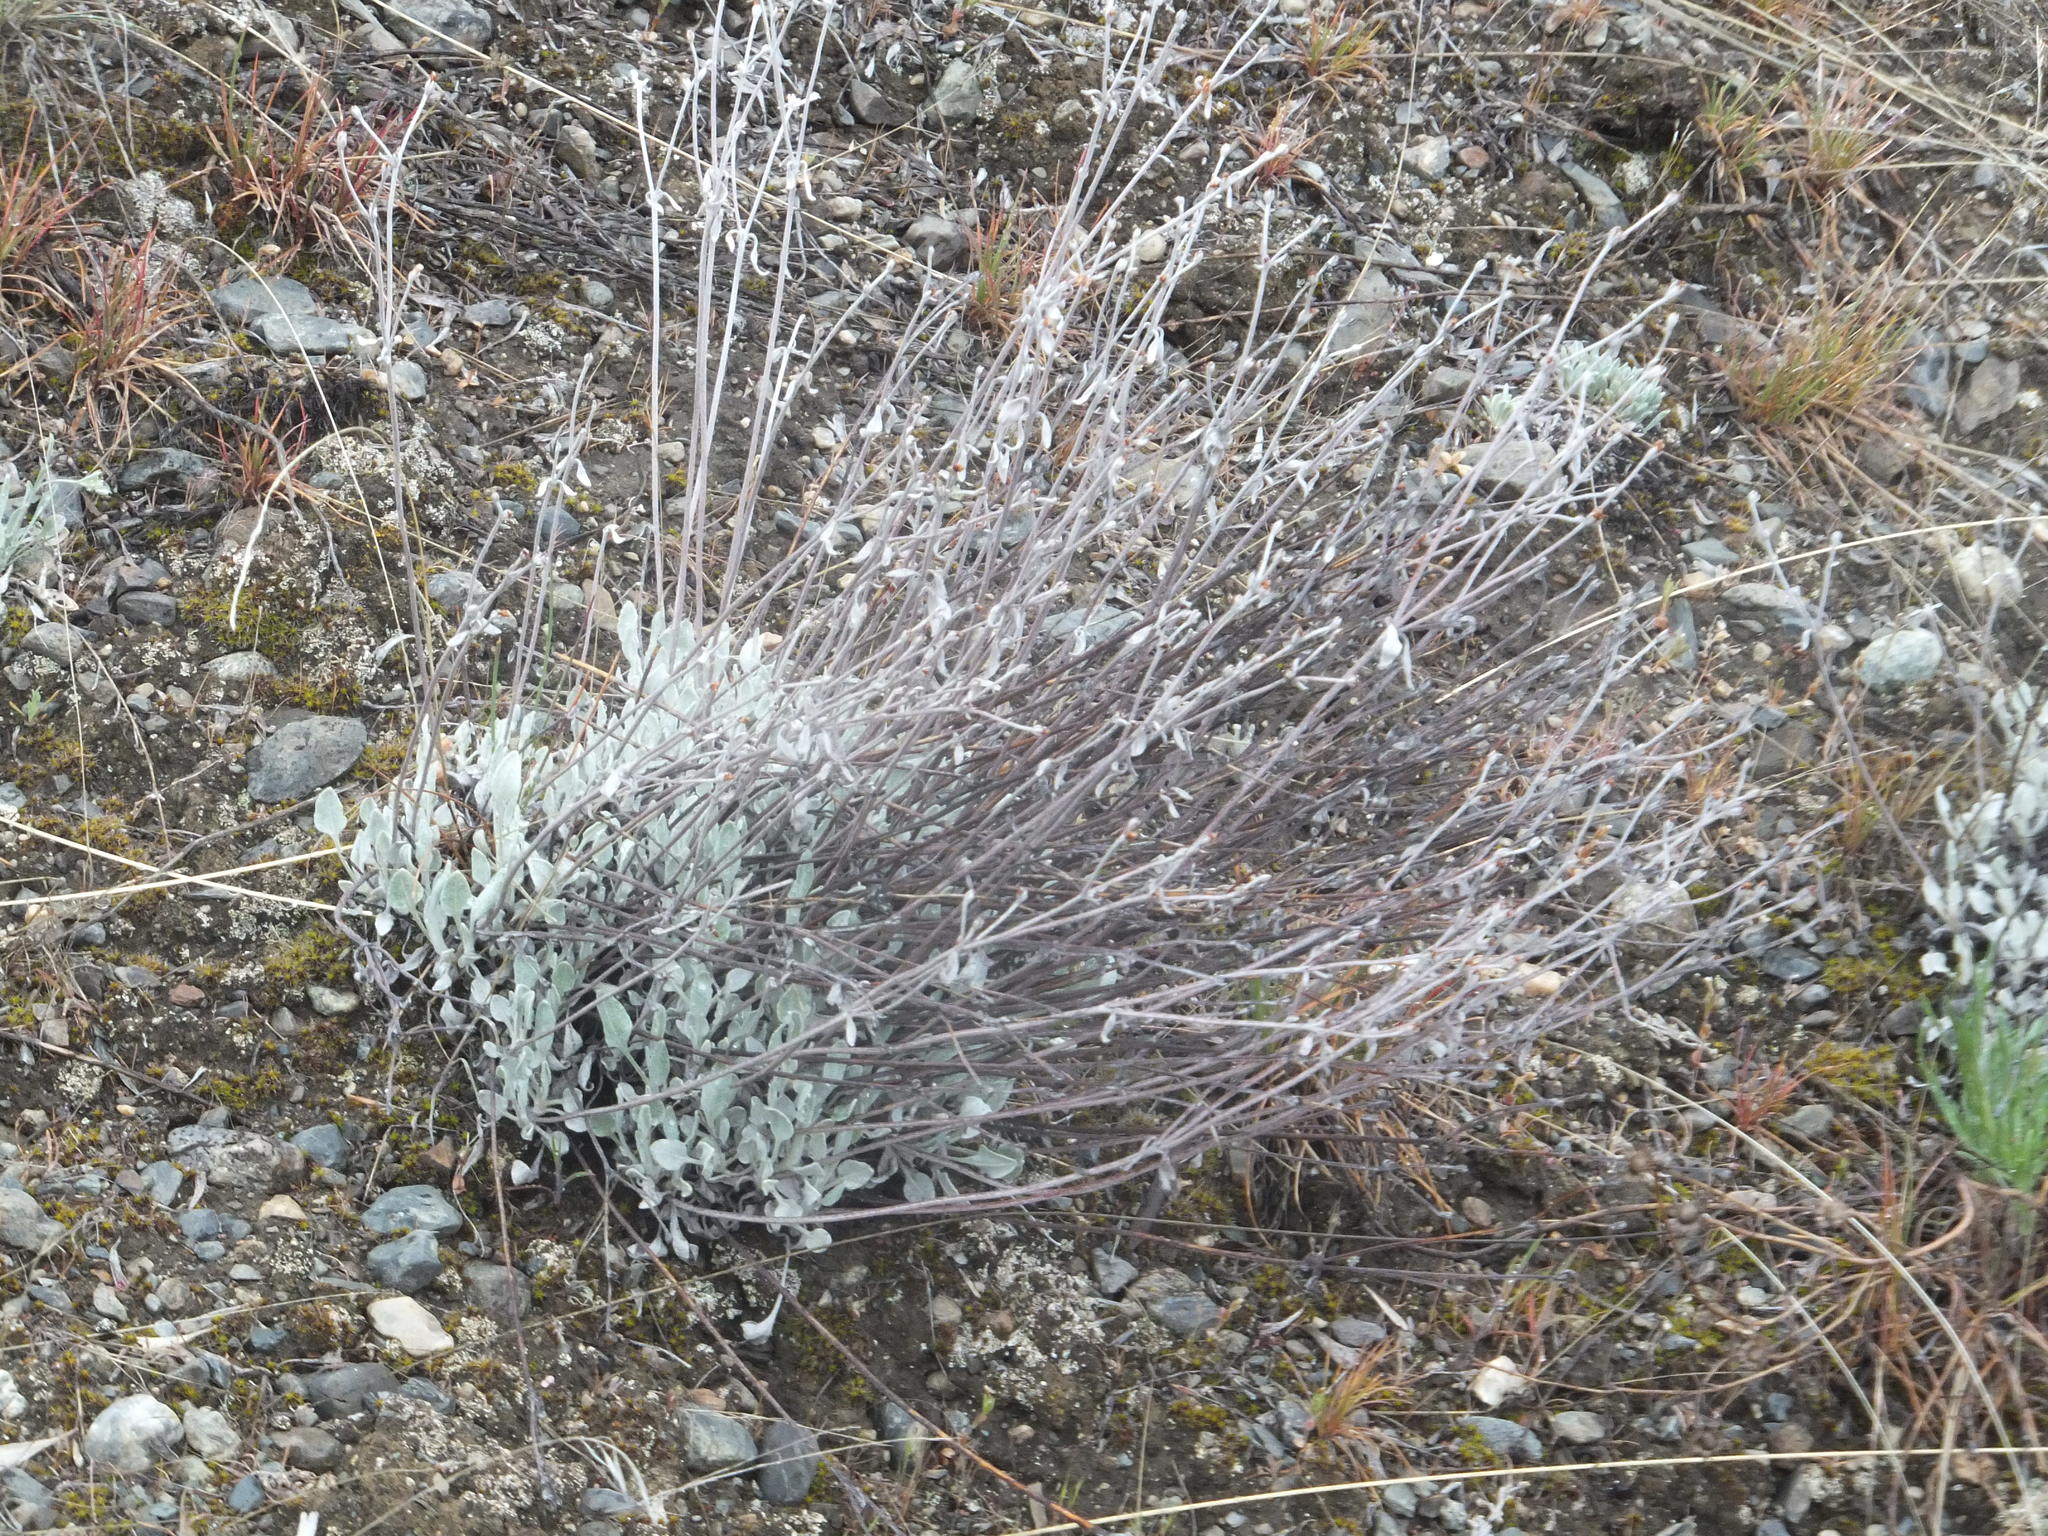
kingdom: Plantae
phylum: Tracheophyta
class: Magnoliopsida
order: Caryophyllales
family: Polygonaceae
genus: Eriogonum
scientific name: Eriogonum niveum
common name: Snow wild buckwheat
